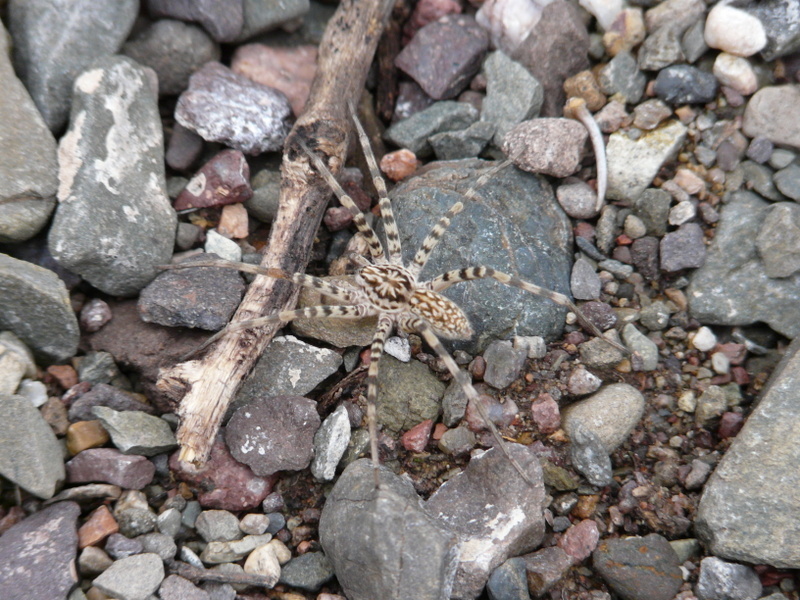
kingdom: Animalia
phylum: Arthropoda
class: Arachnida
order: Araneae
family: Xenoctenidae
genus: Xenoctenus
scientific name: Xenoctenus unguiculatus
